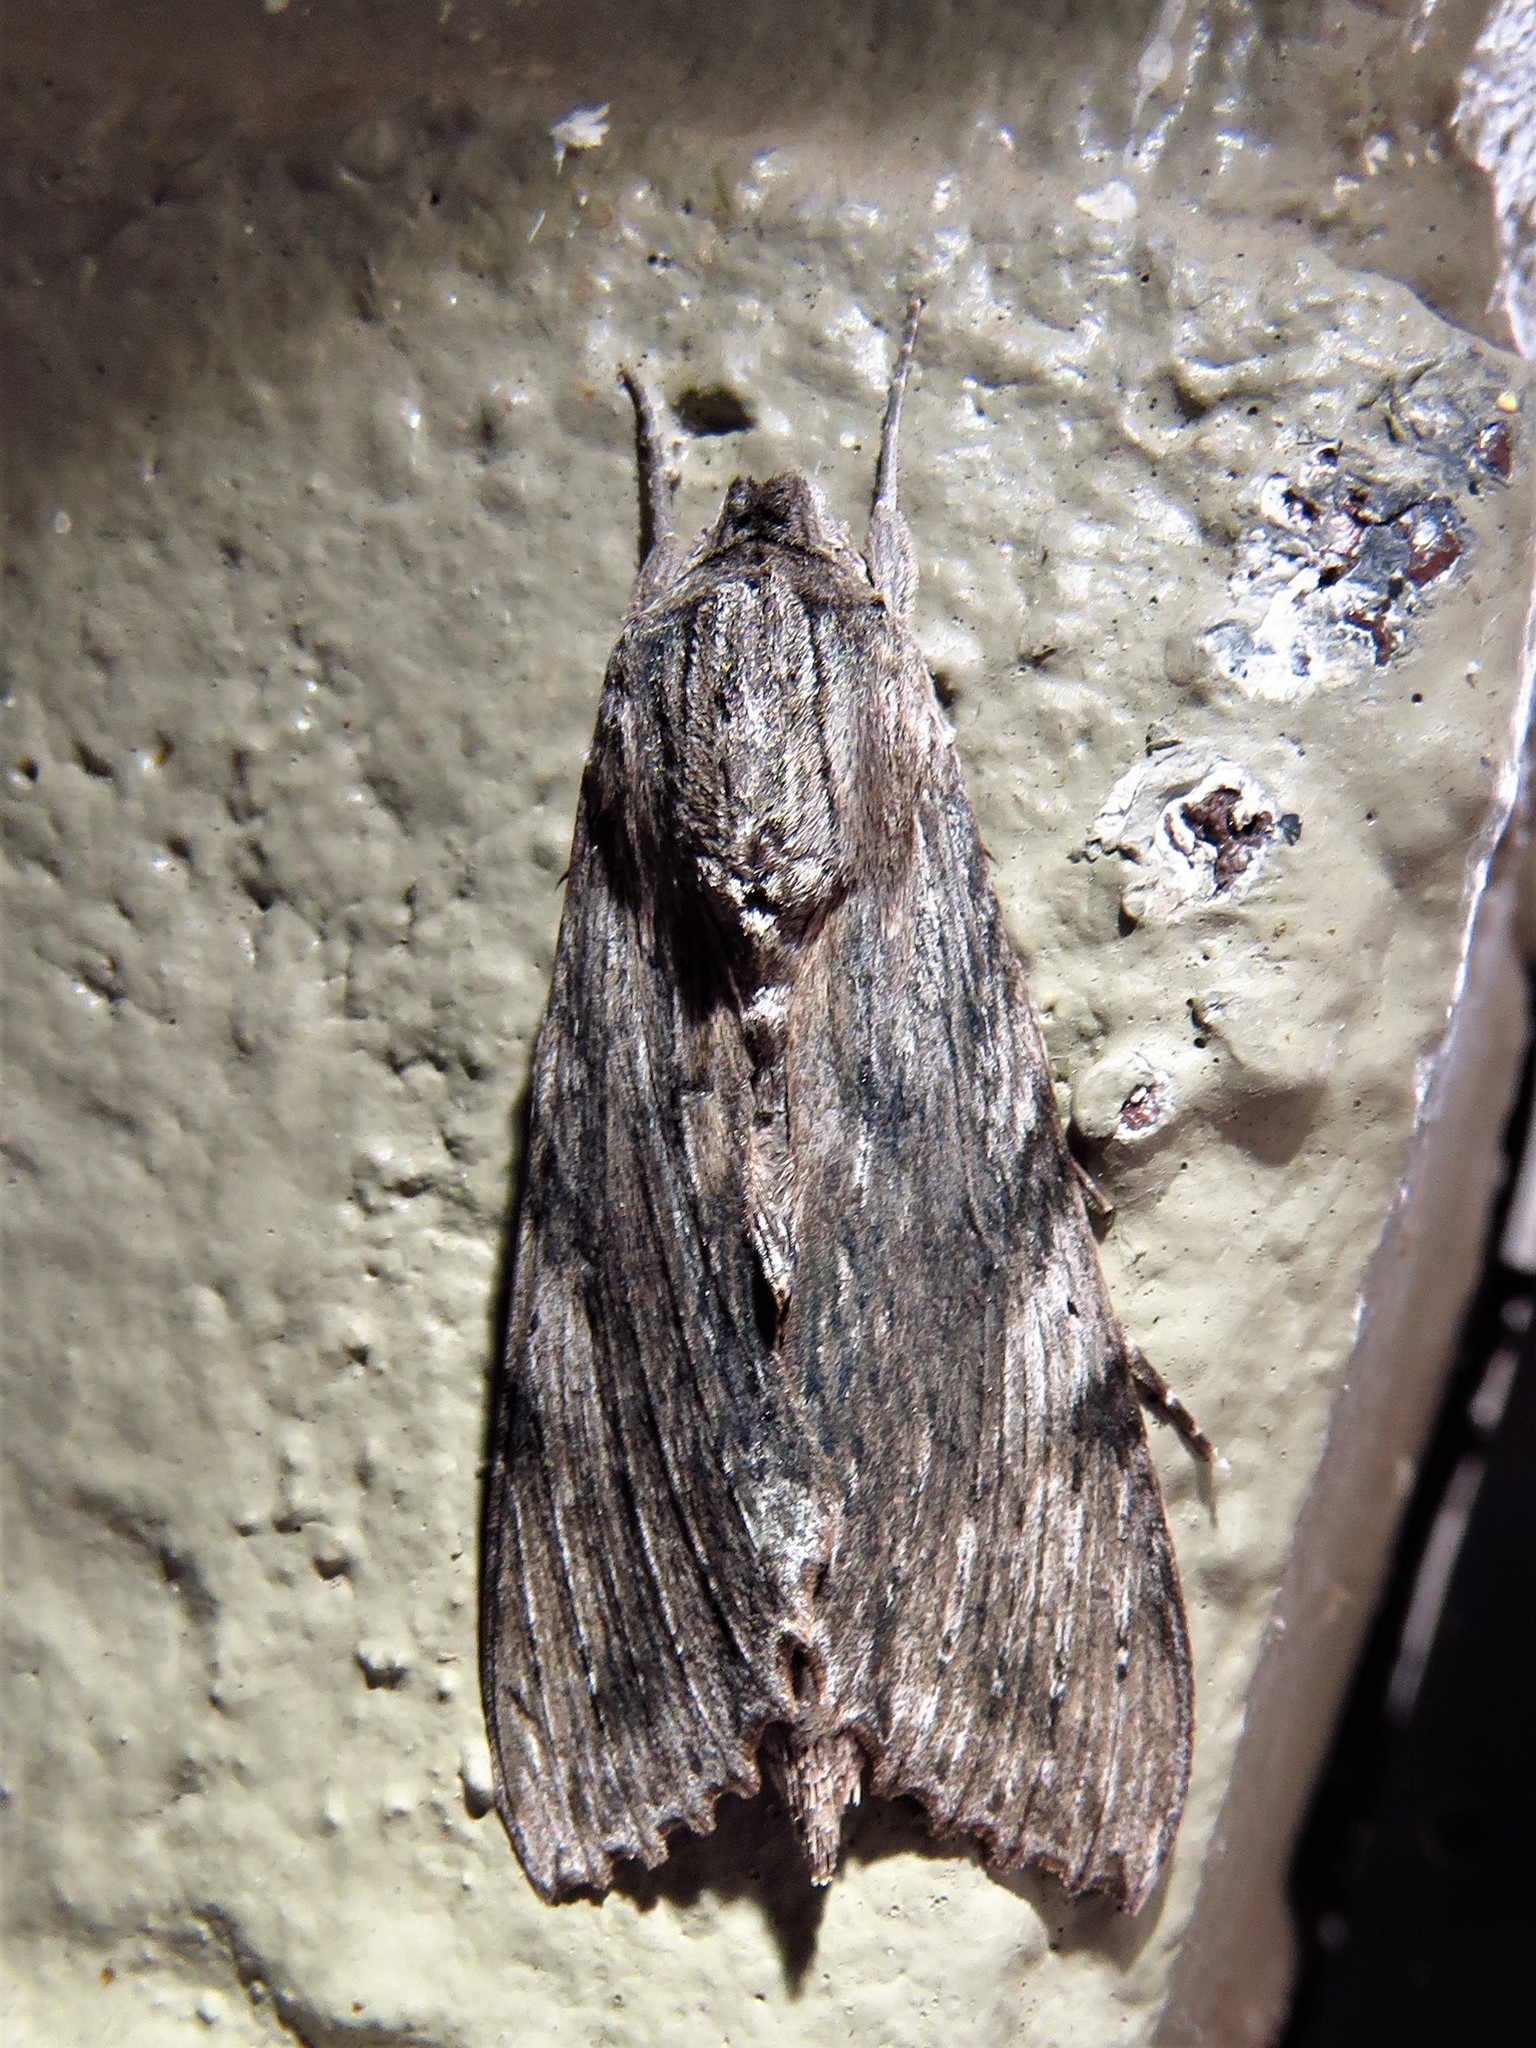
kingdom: Animalia
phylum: Arthropoda
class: Insecta
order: Lepidoptera
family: Sphingidae
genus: Erinnyis
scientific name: Erinnyis obscura
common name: Obscure sphinx
